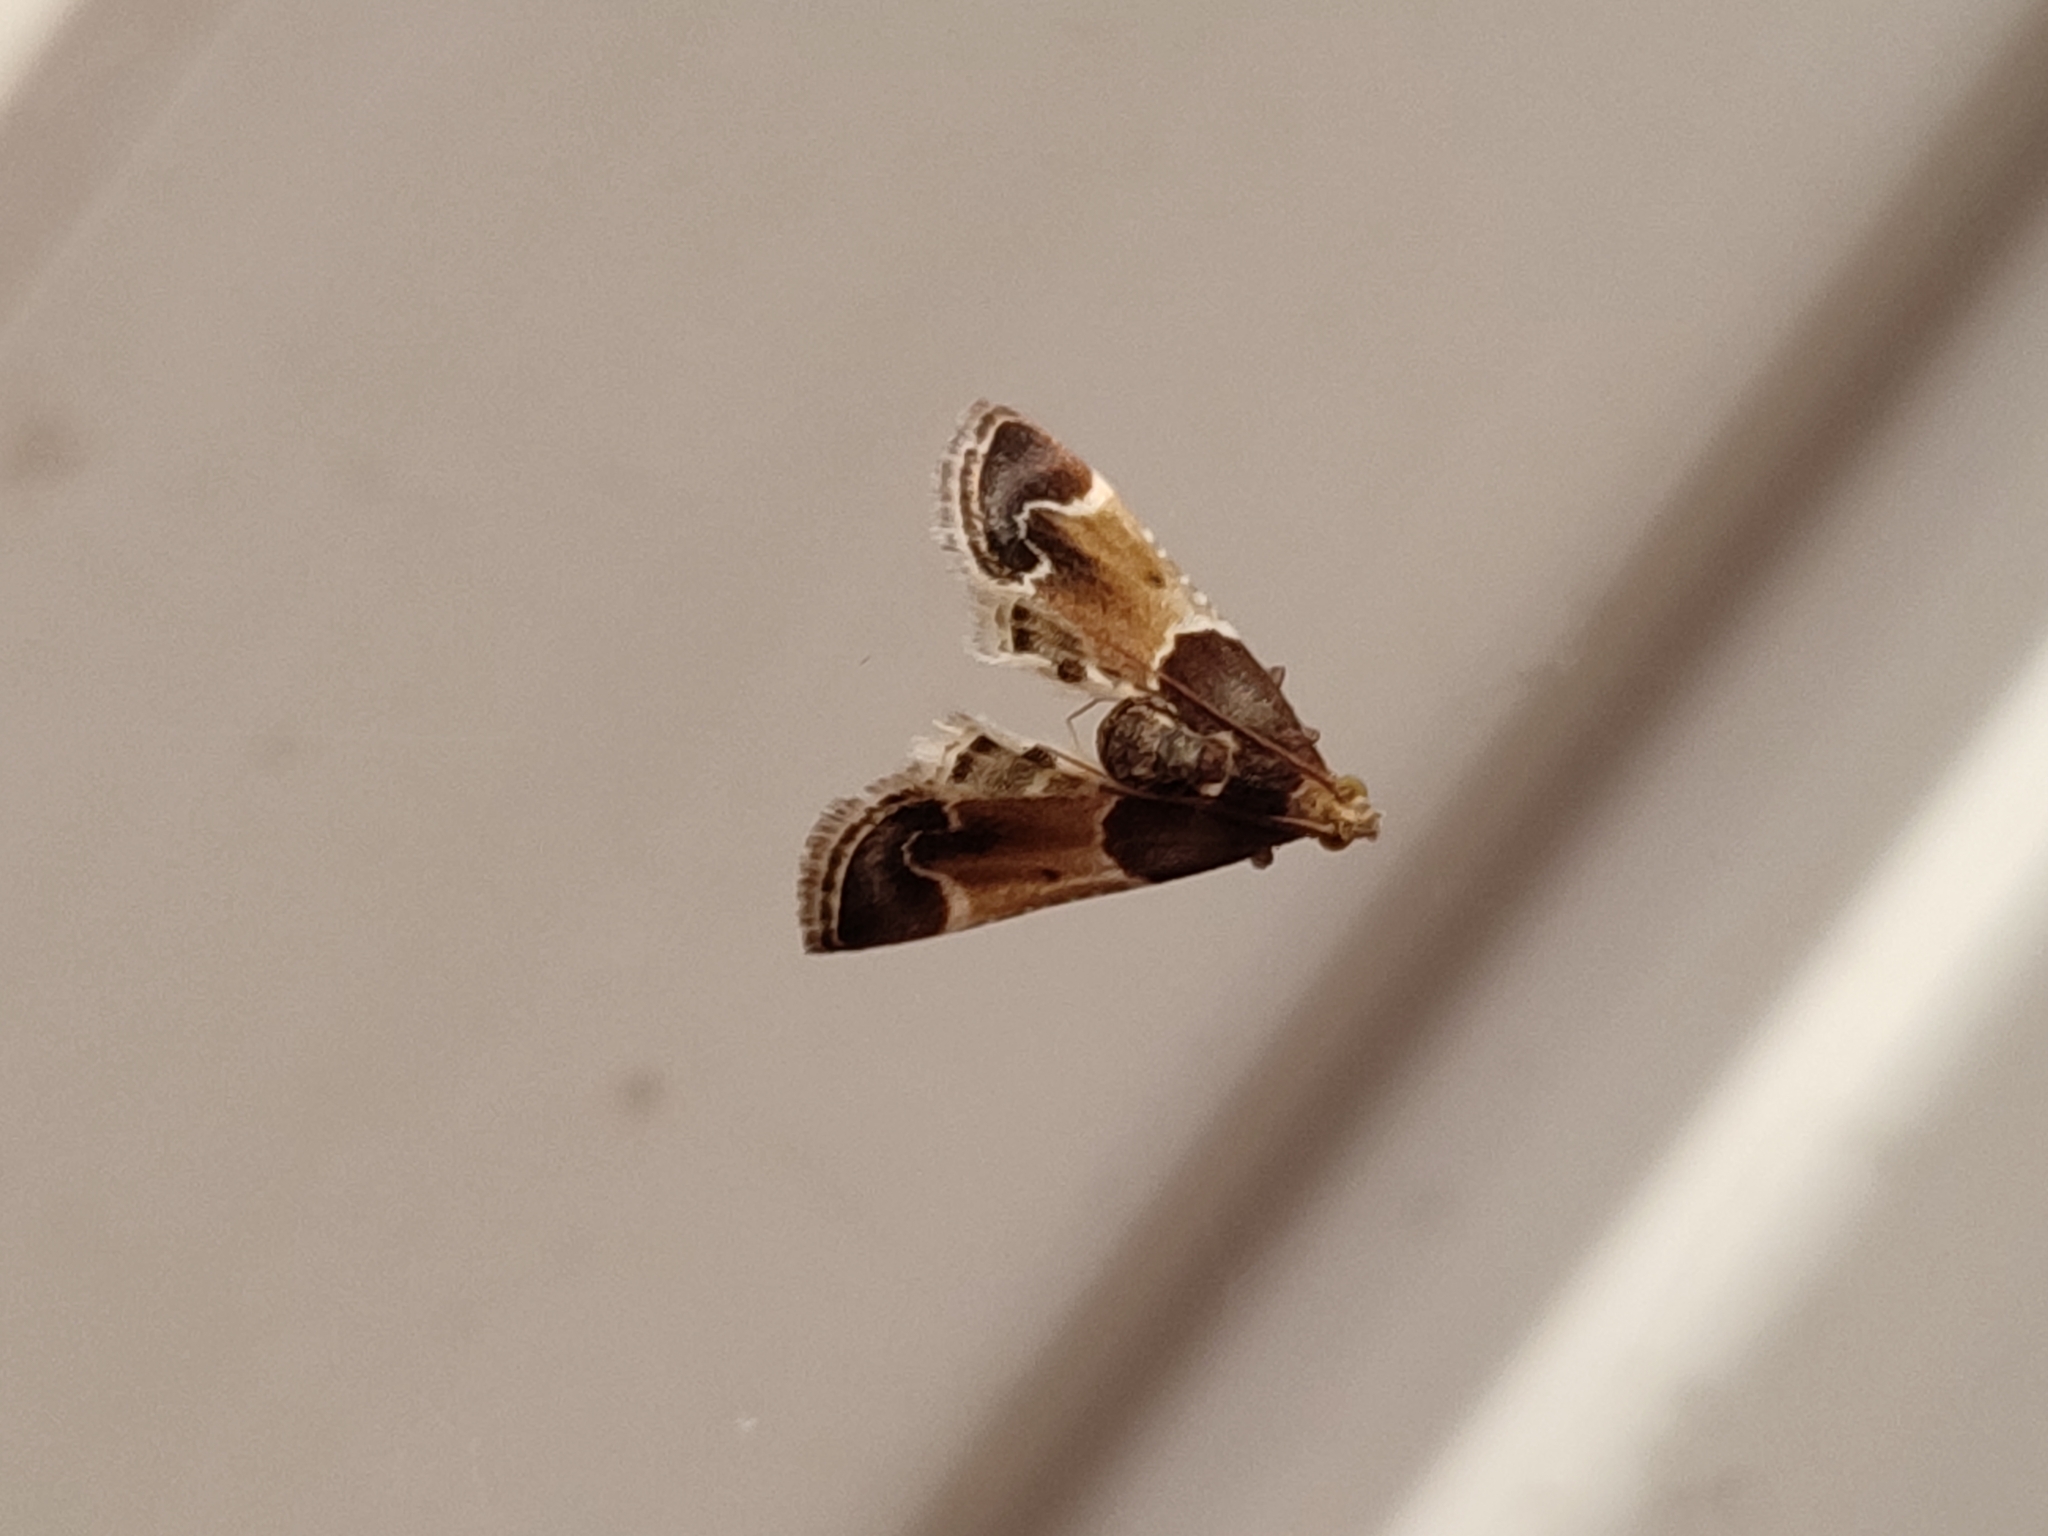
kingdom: Animalia
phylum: Arthropoda
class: Insecta
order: Lepidoptera
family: Pyralidae
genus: Pyralis
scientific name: Pyralis farinalis
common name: Meal moth
